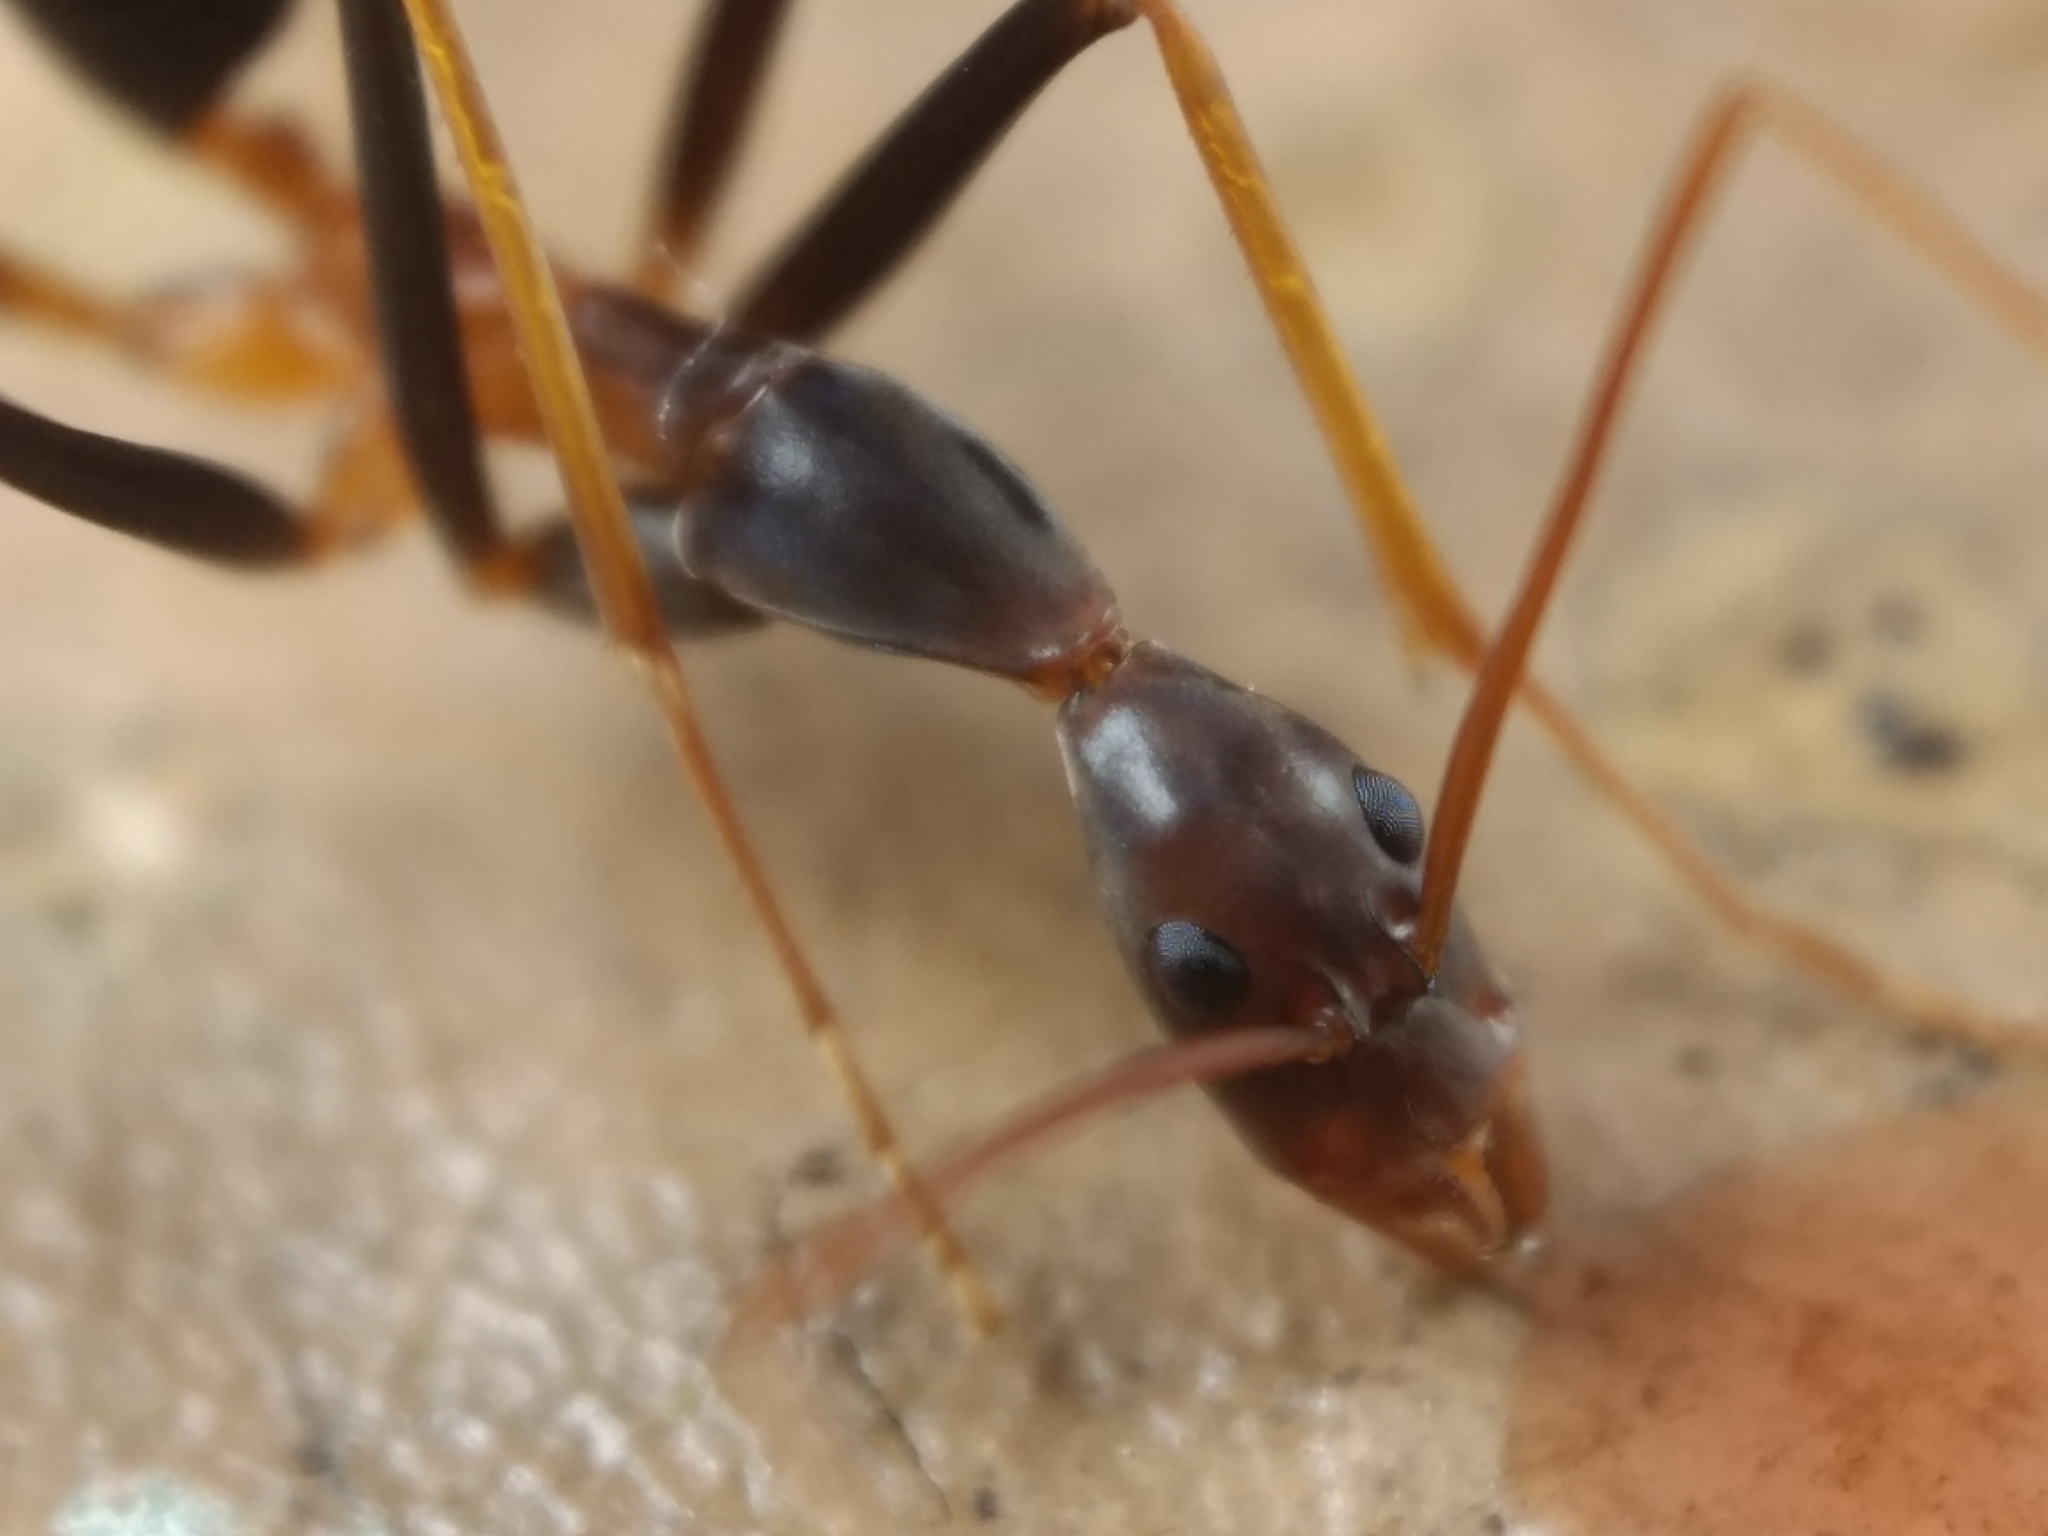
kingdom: Animalia
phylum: Arthropoda
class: Insecta
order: Hymenoptera
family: Formicidae
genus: Leptomyrmex
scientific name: Leptomyrmex rothneyi
